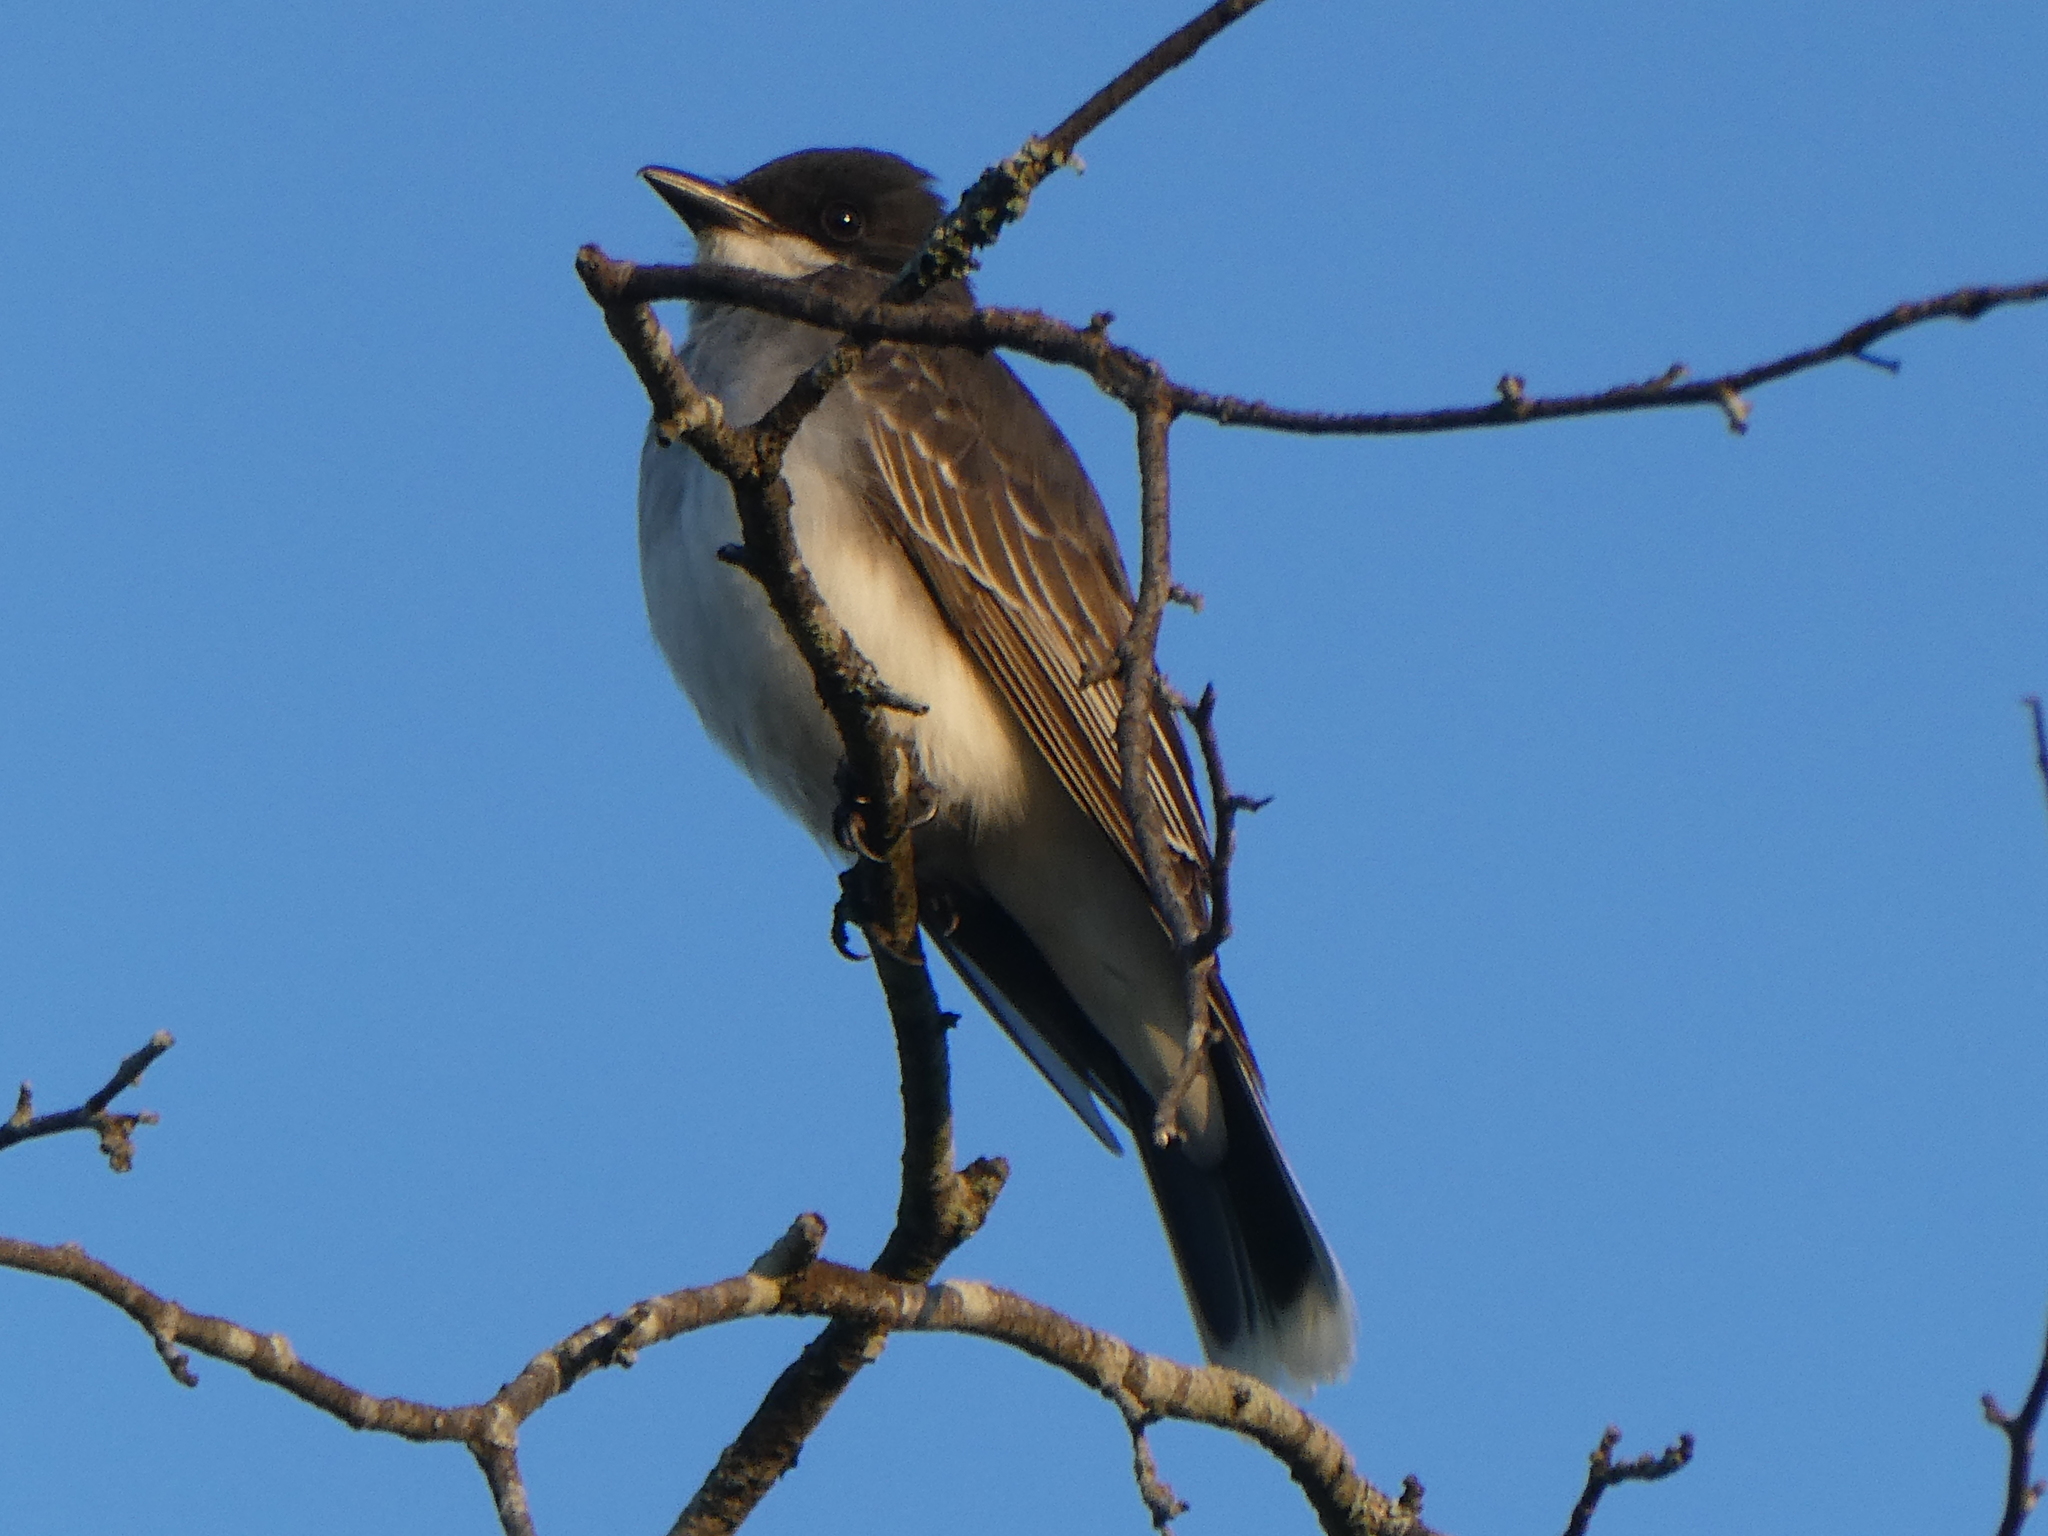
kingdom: Animalia
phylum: Chordata
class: Aves
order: Passeriformes
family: Tyrannidae
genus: Tyrannus
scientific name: Tyrannus tyrannus
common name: Eastern kingbird
